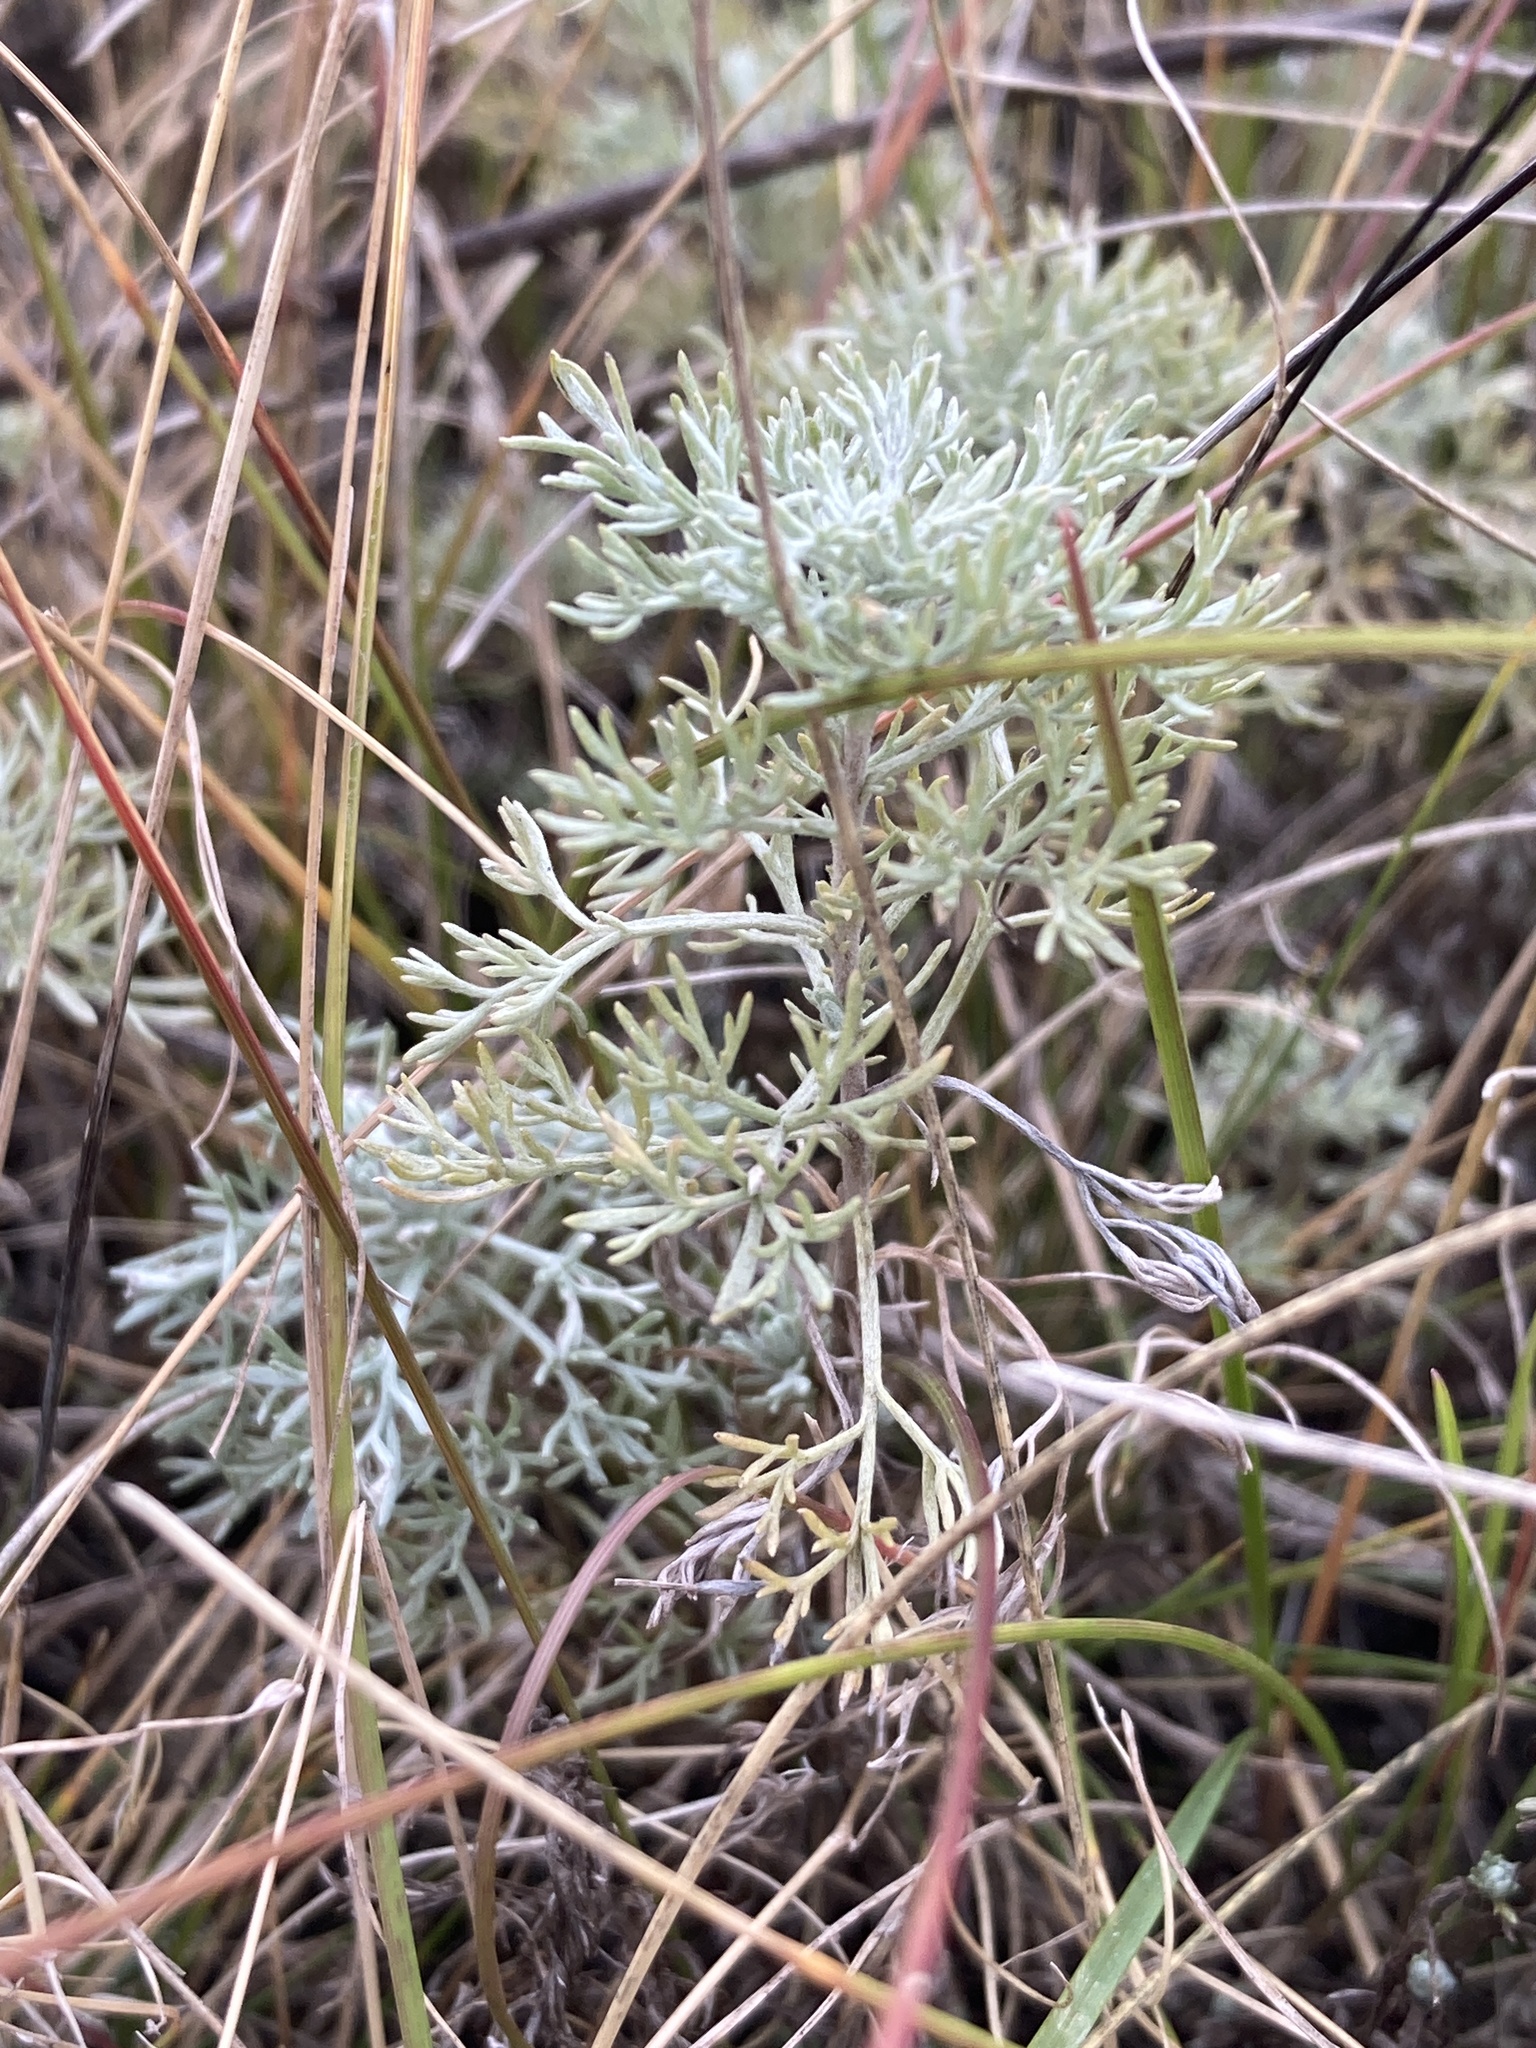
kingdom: Plantae
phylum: Tracheophyta
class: Magnoliopsida
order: Asterales
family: Asteraceae
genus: Artemisia
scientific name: Artemisia austriaca
